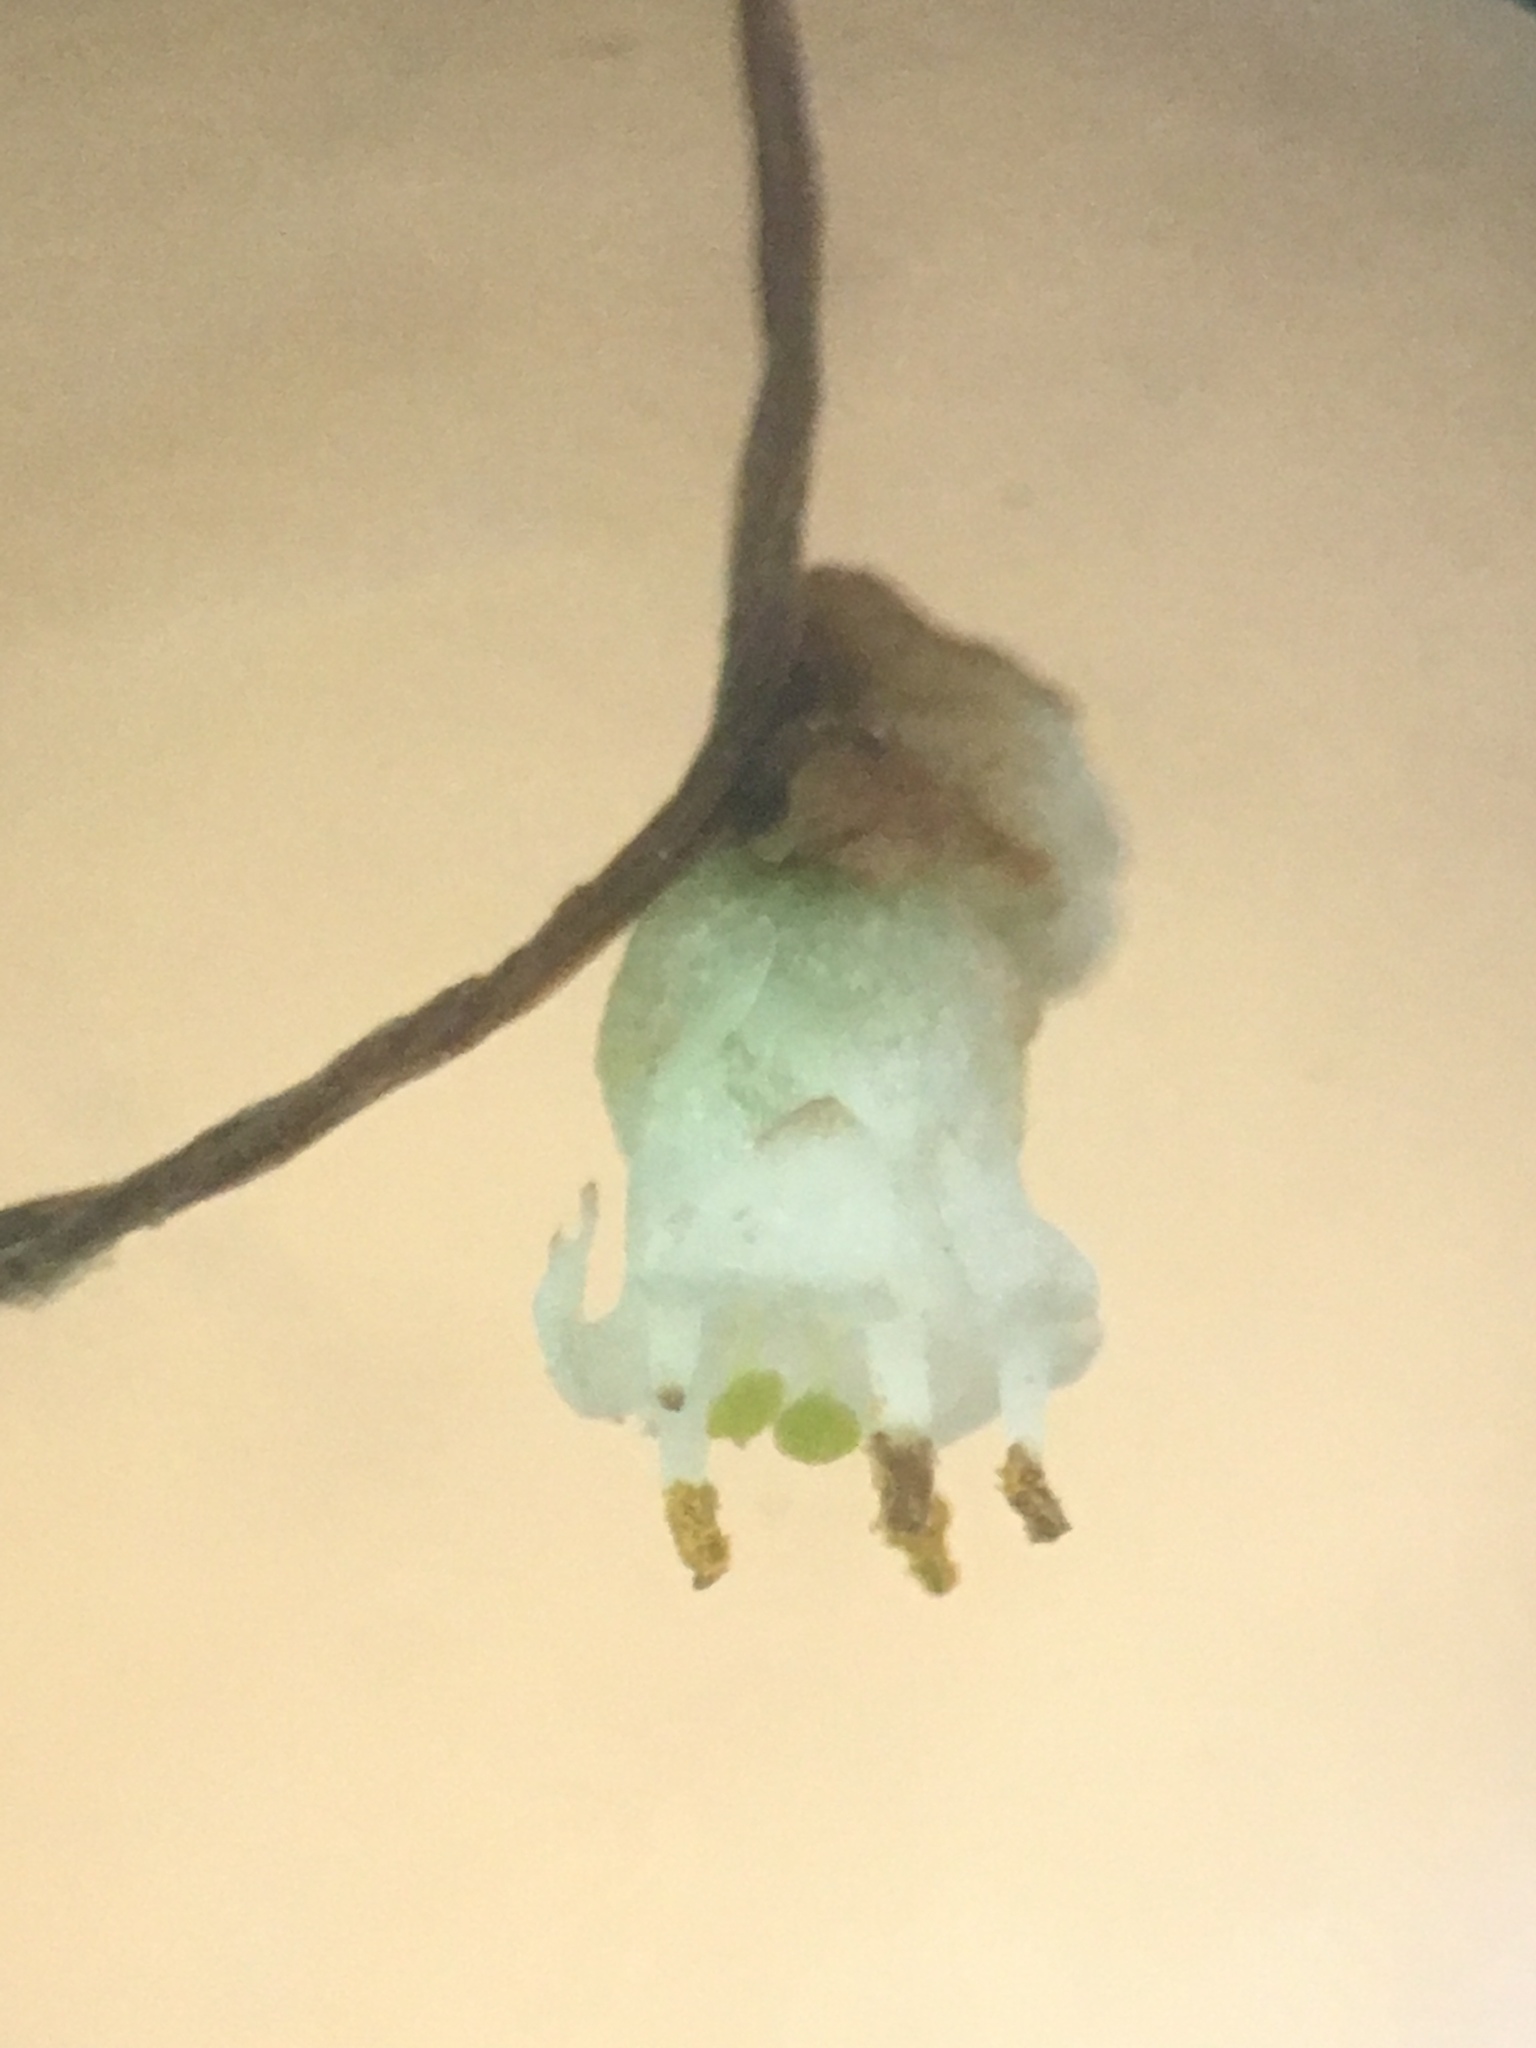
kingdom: Plantae
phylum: Tracheophyta
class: Magnoliopsida
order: Solanales
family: Convolvulaceae
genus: Cuscuta
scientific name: Cuscuta gronovii
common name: Common dodder
